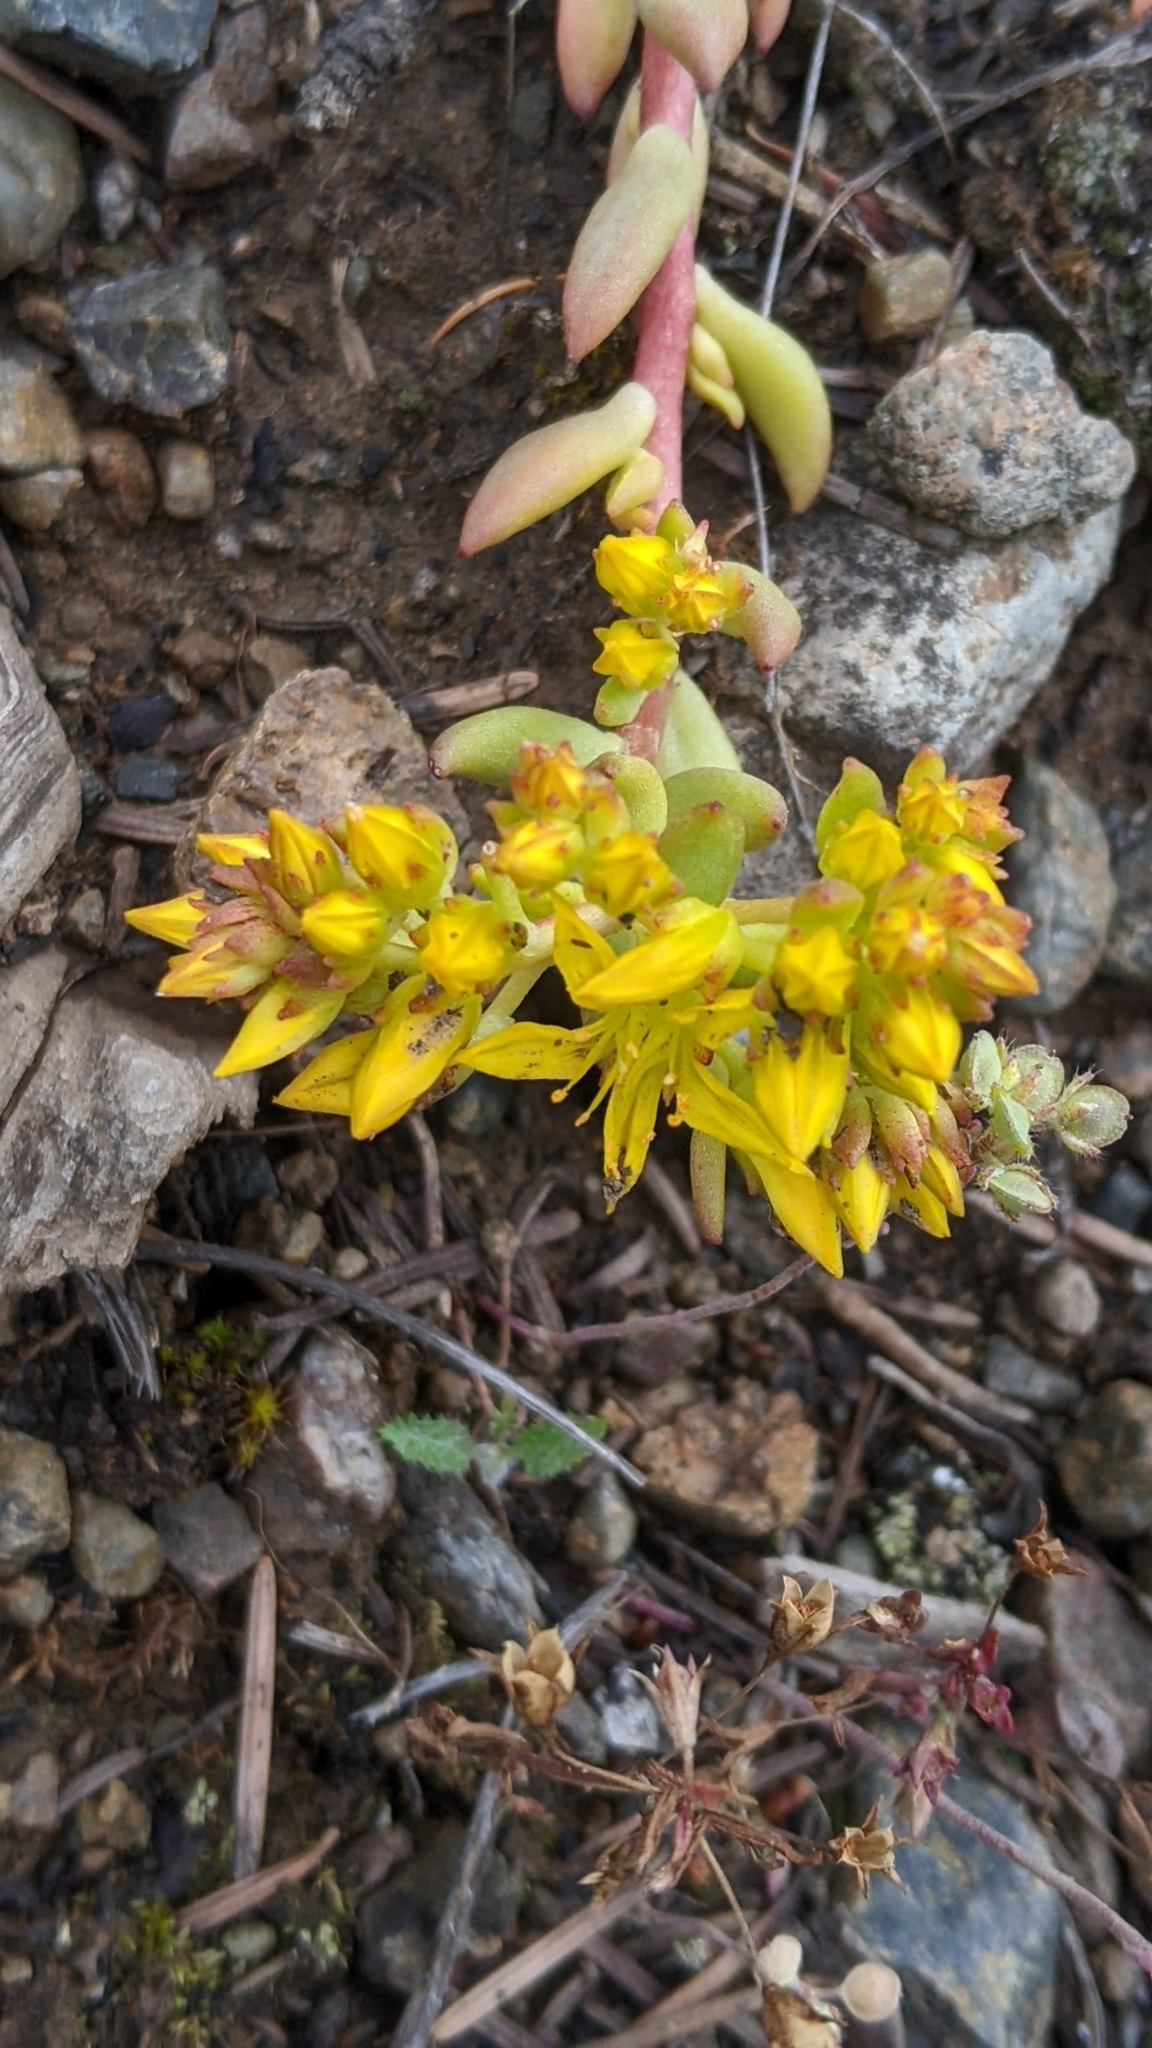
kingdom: Plantae
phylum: Tracheophyta
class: Magnoliopsida
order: Saxifragales
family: Crassulaceae
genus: Sedum
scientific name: Sedum lanceolatum
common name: Common stonecrop
